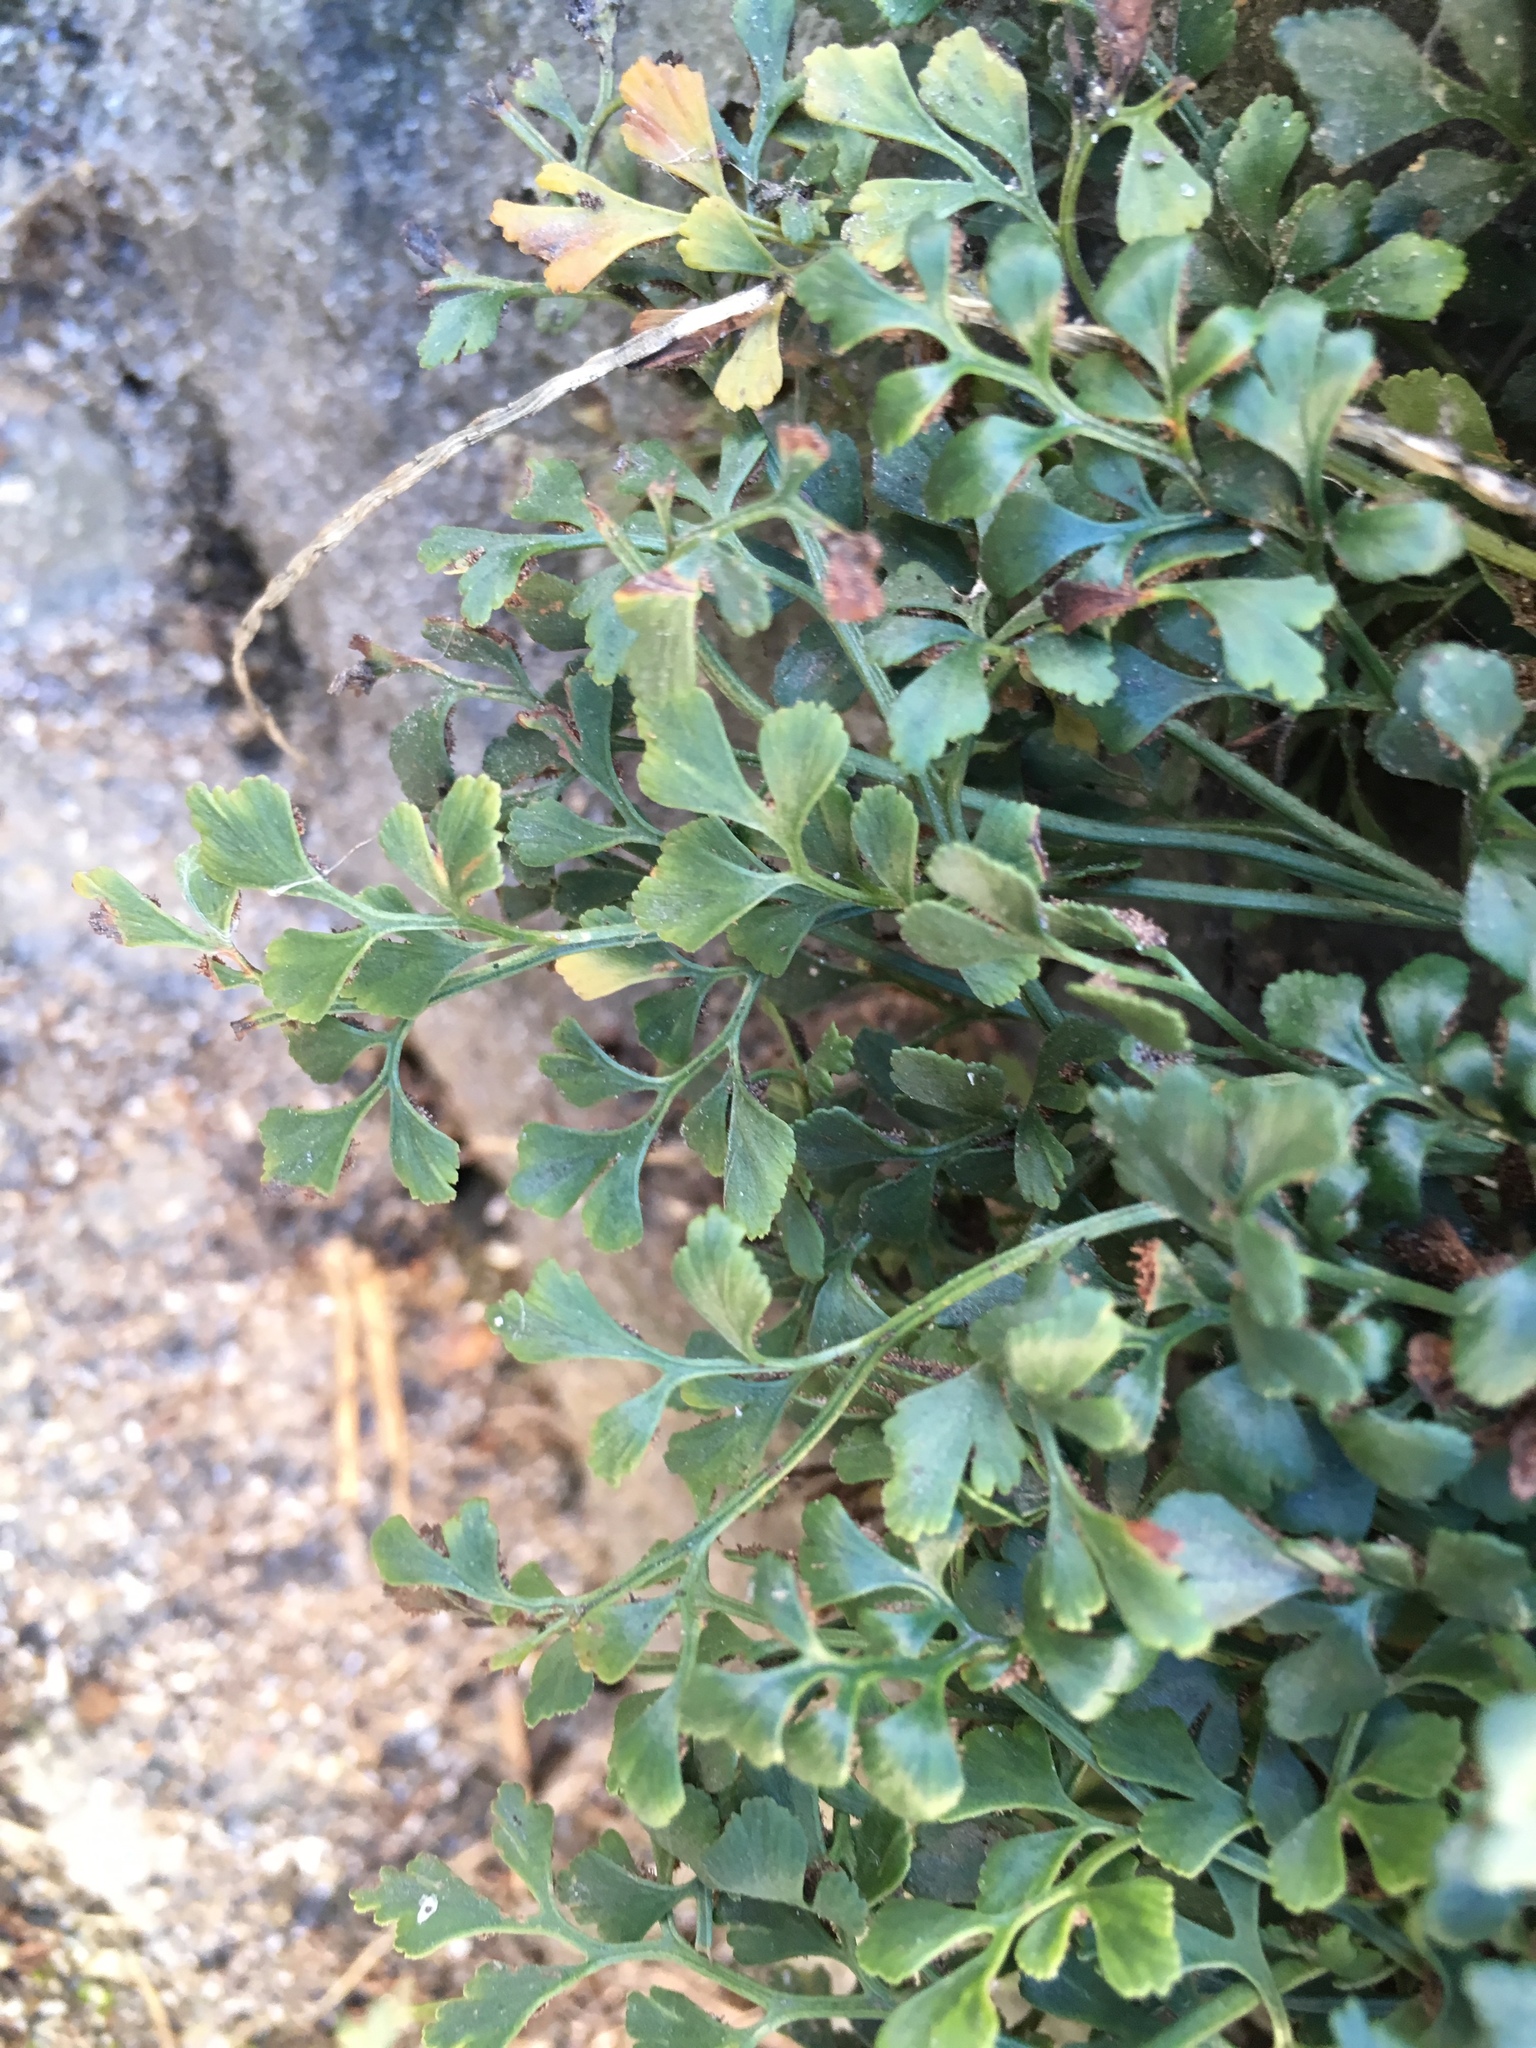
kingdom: Plantae
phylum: Tracheophyta
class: Polypodiopsida
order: Polypodiales
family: Aspleniaceae
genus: Asplenium
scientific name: Asplenium ruta-muraria
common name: Wall-rue
